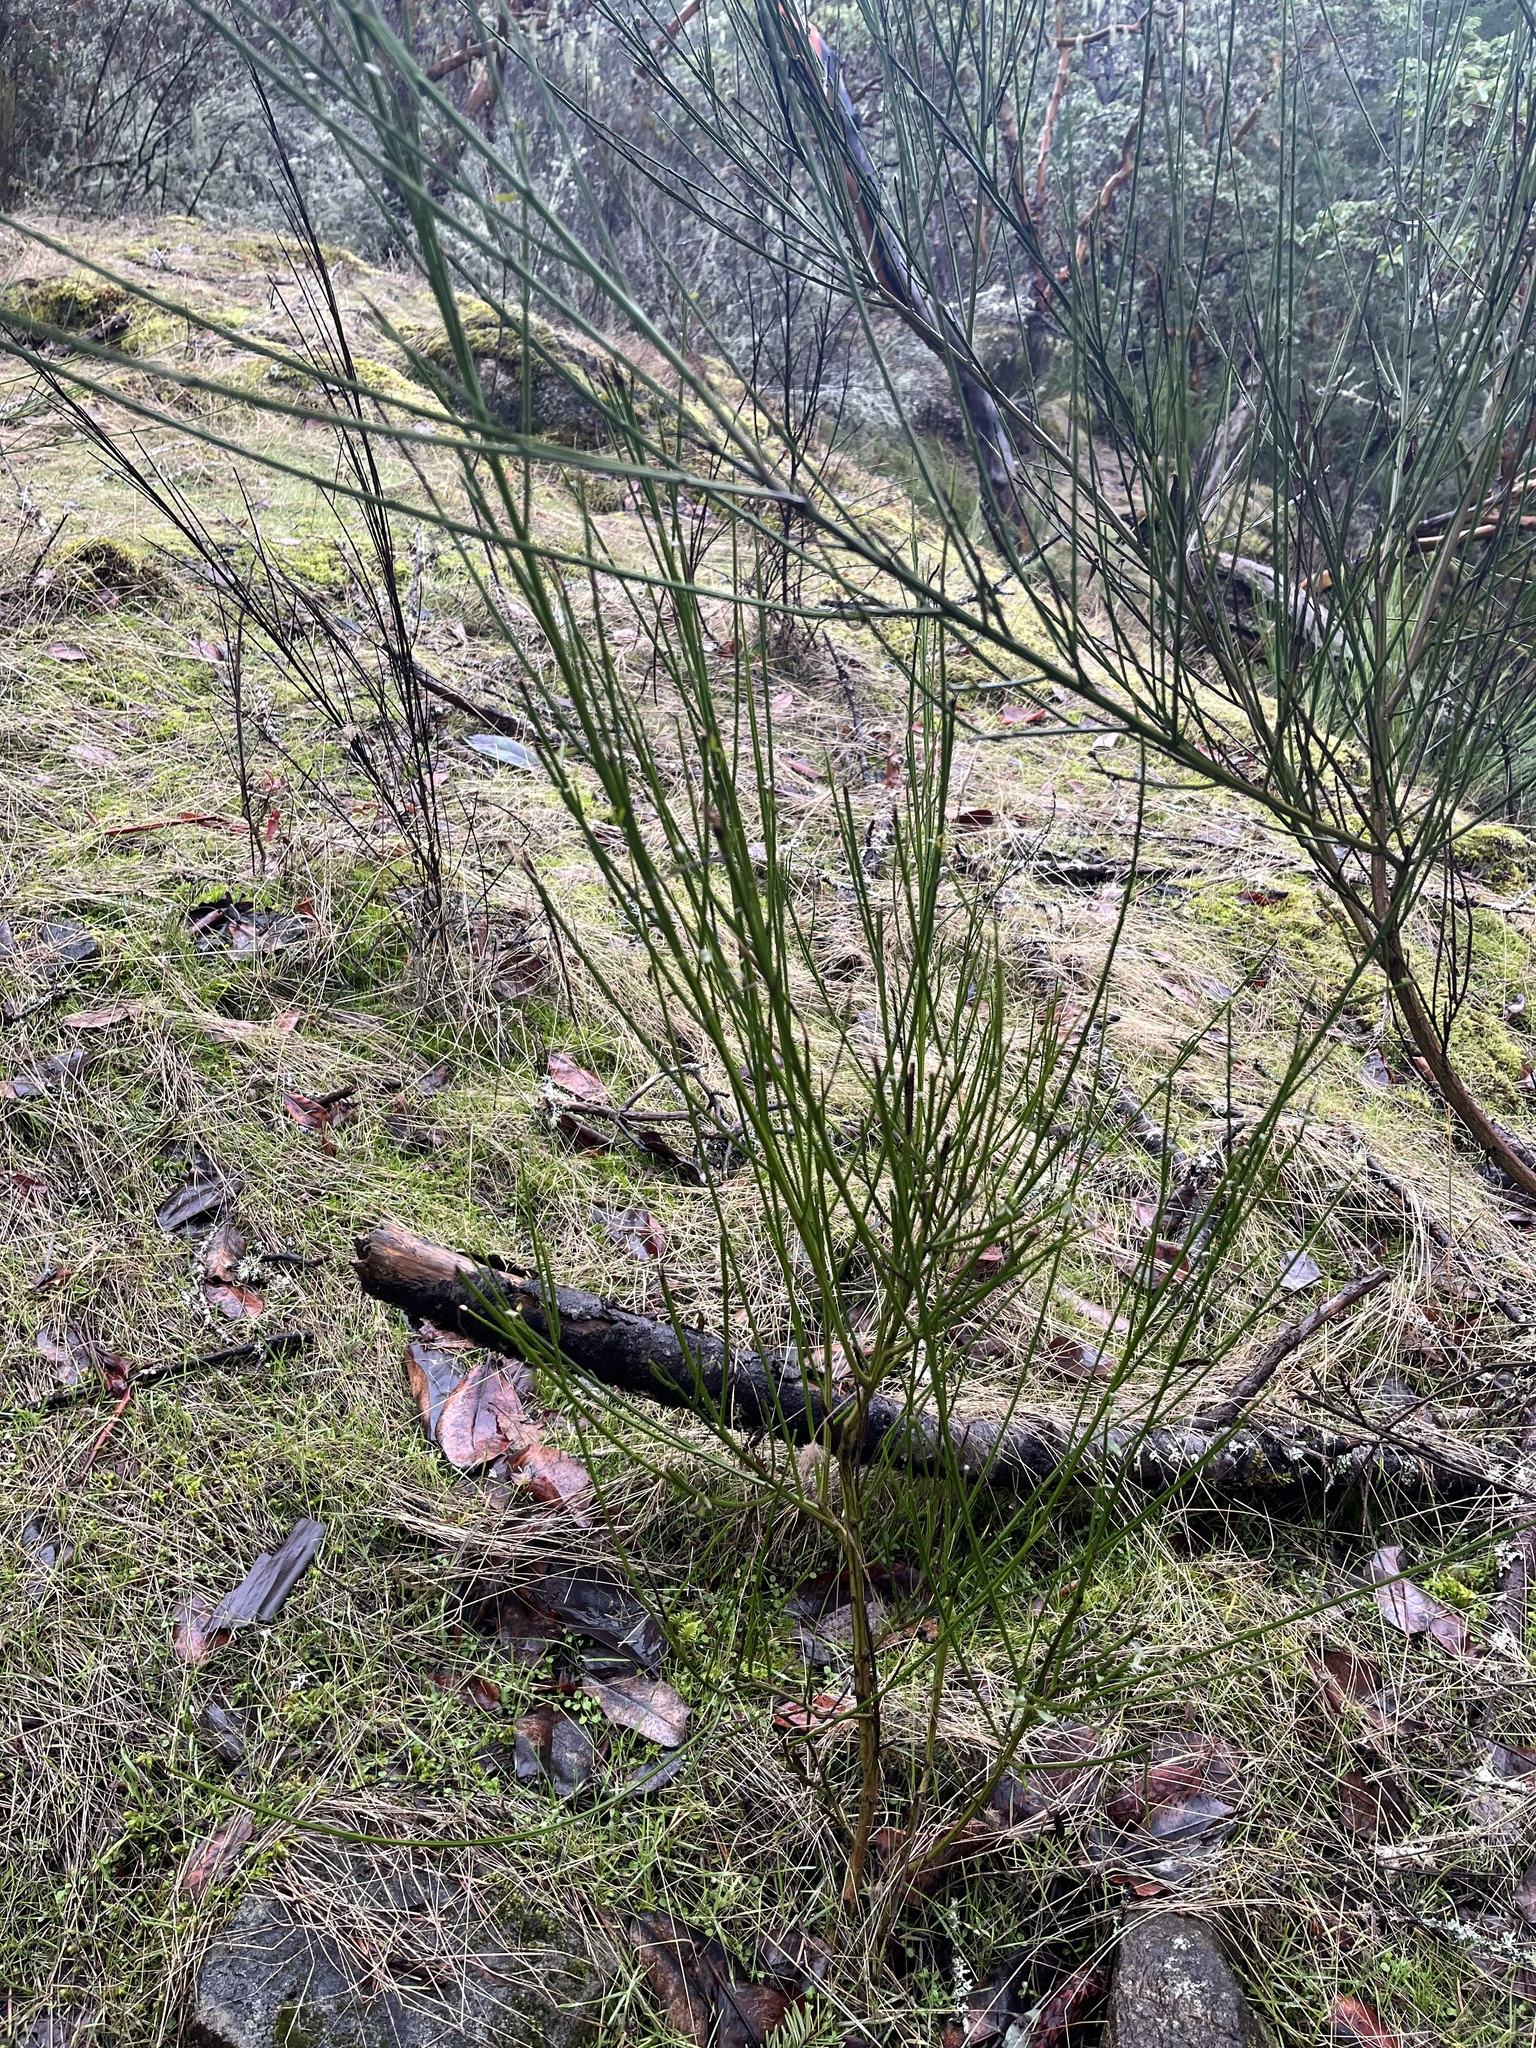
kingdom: Plantae
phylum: Tracheophyta
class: Magnoliopsida
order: Fabales
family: Fabaceae
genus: Cytisus
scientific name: Cytisus scoparius
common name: Scotch broom
